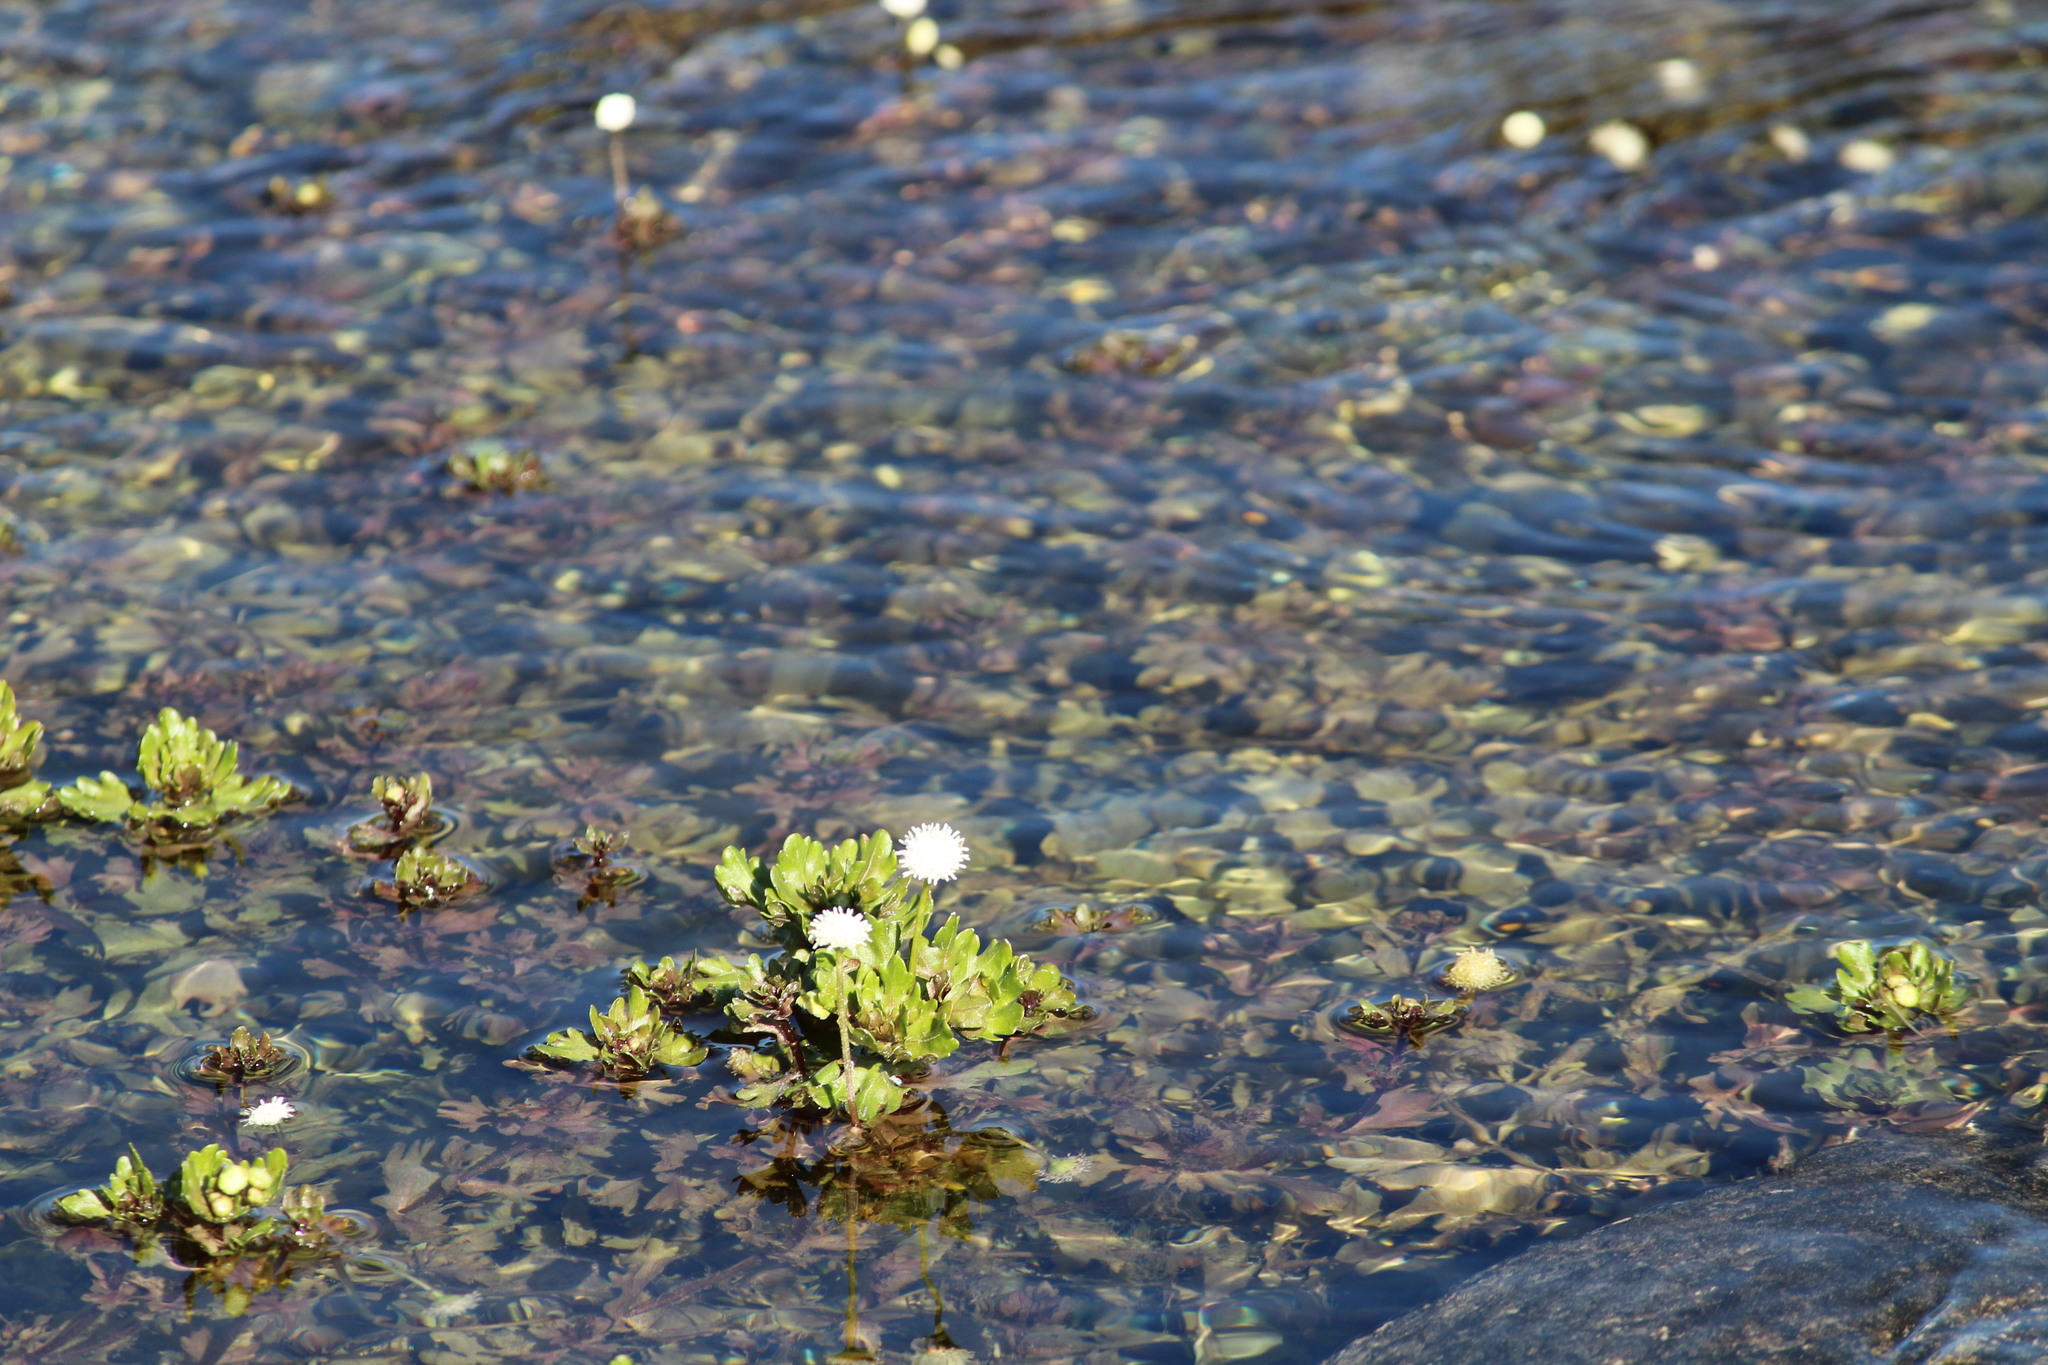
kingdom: Plantae
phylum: Tracheophyta
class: Magnoliopsida
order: Asterales
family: Asteraceae
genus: Shinnersia
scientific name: Shinnersia rivularis
